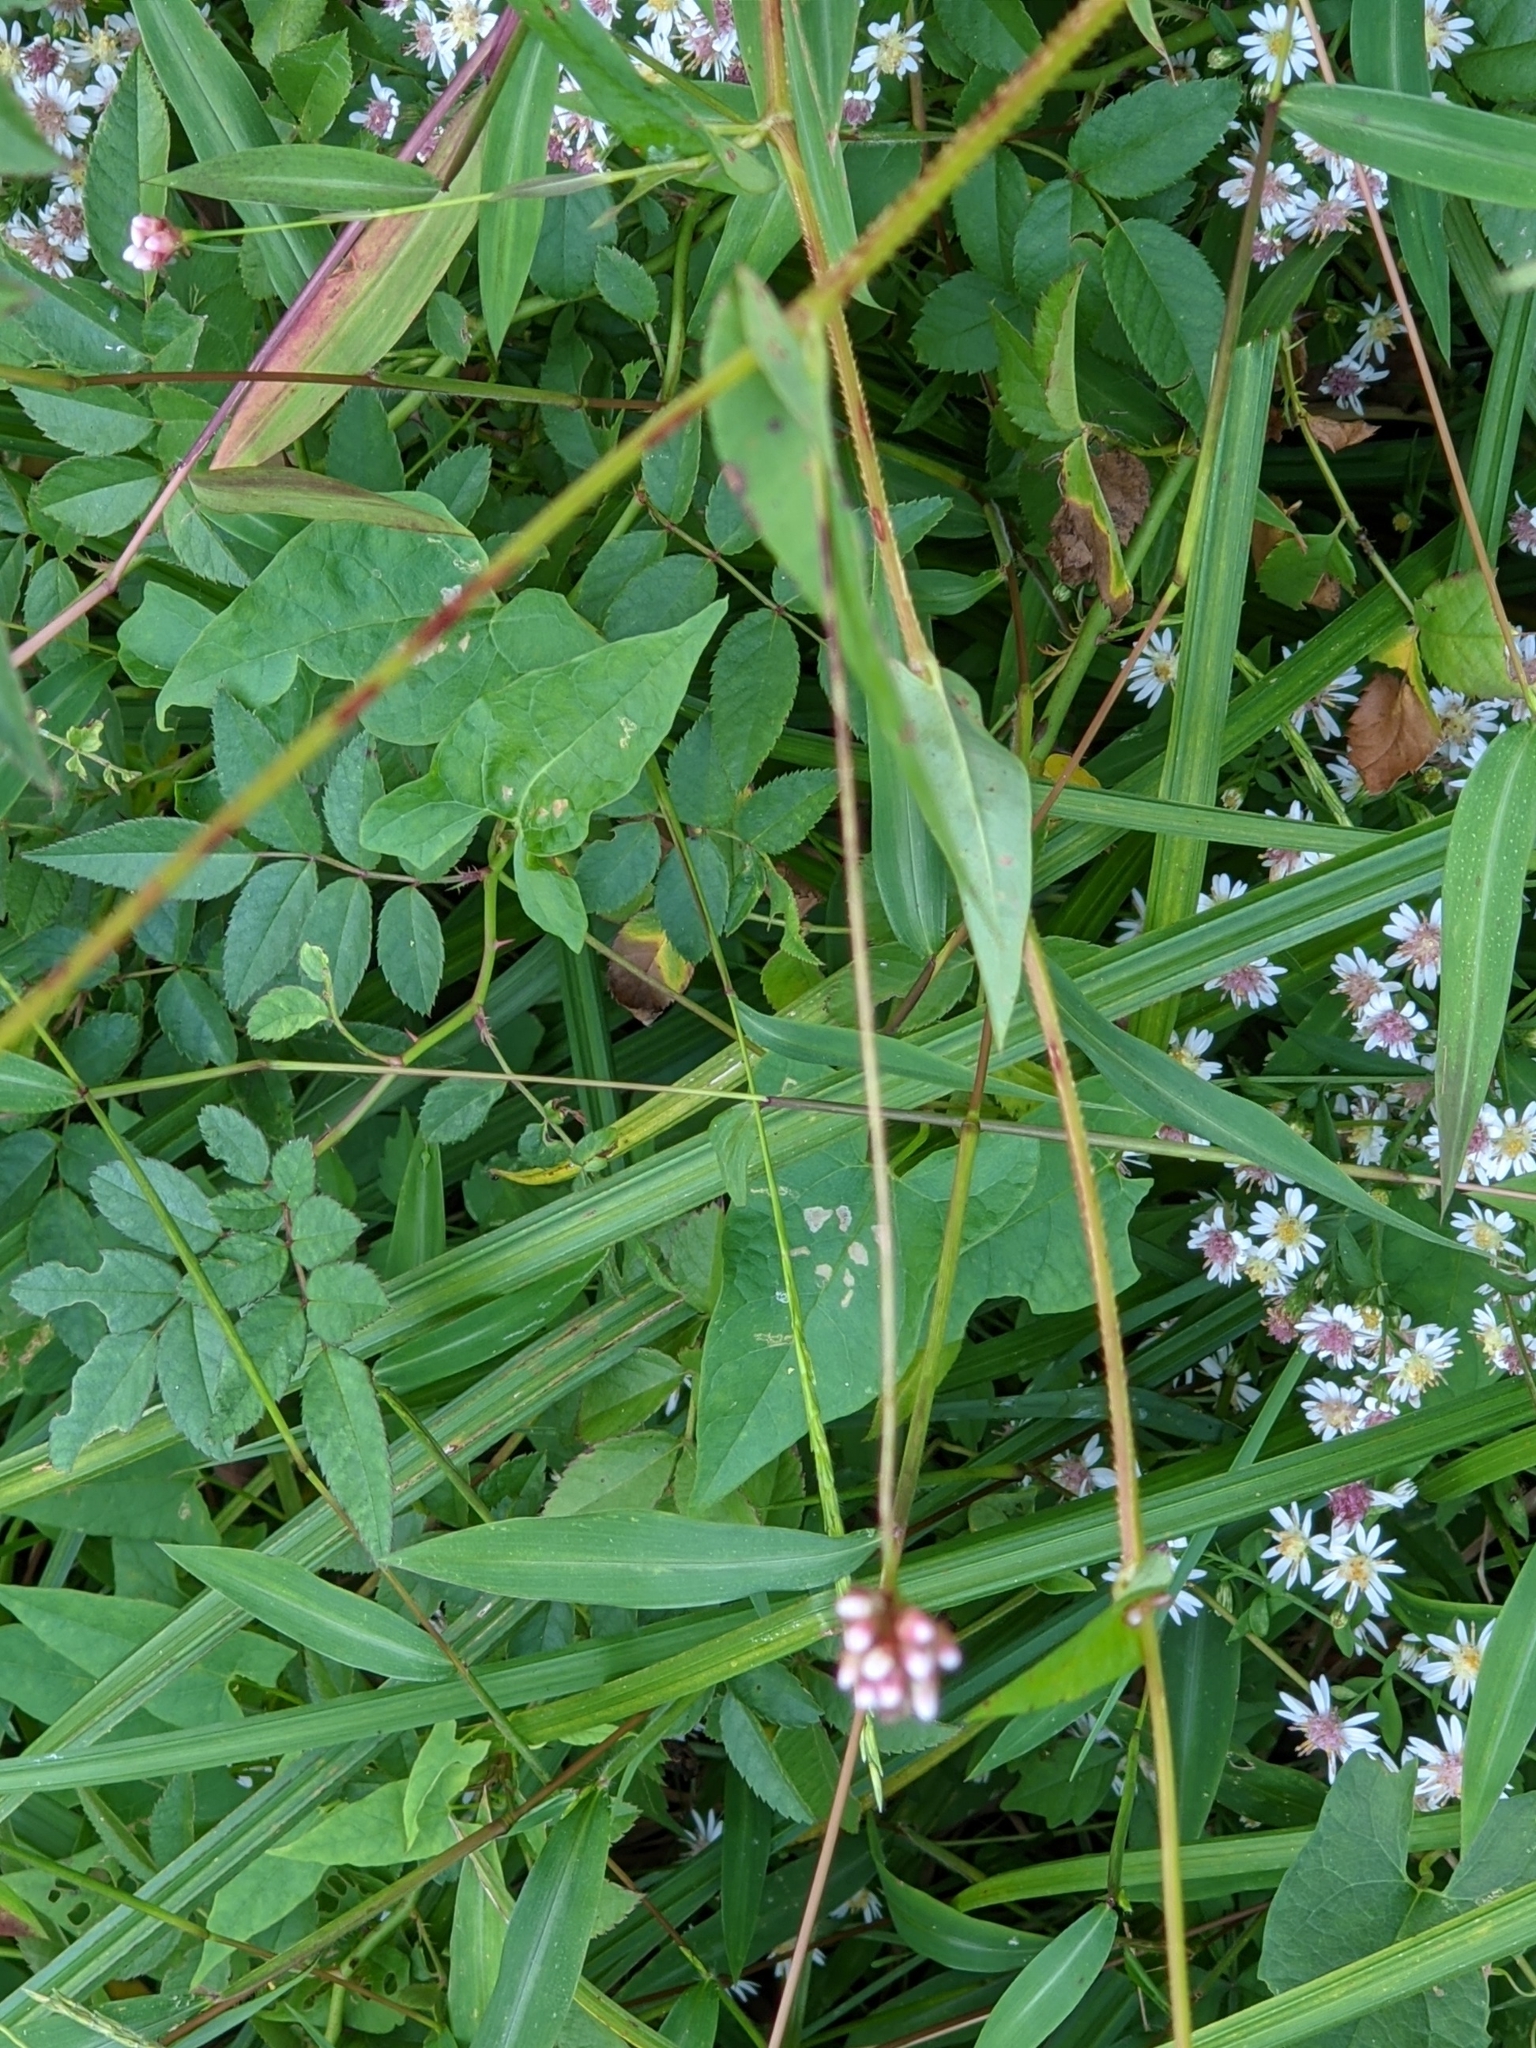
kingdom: Plantae
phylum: Tracheophyta
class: Magnoliopsida
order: Caryophyllales
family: Polygonaceae
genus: Persicaria
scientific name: Persicaria sagittata
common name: American tearthumb
